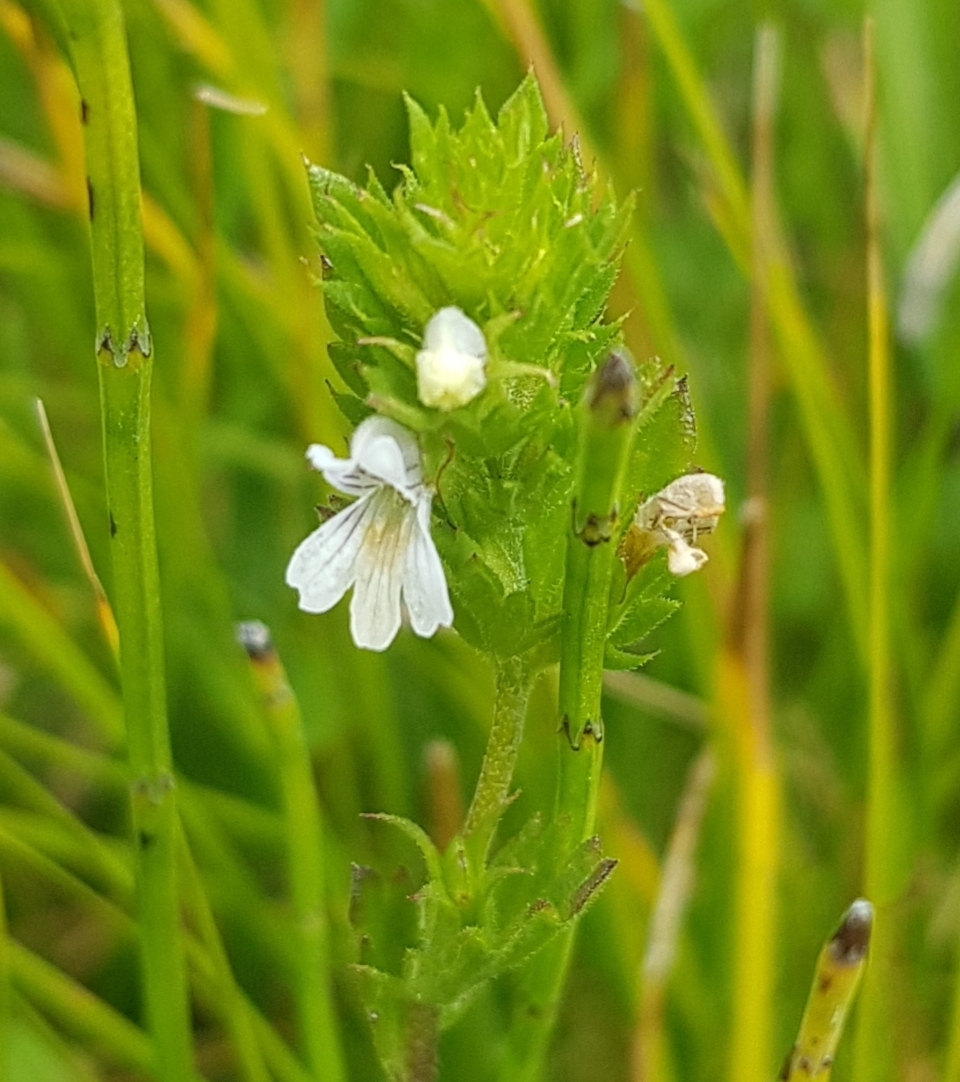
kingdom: Plantae
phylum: Tracheophyta
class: Magnoliopsida
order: Lamiales
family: Orobanchaceae
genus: Euphrasia
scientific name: Euphrasia pectinata
